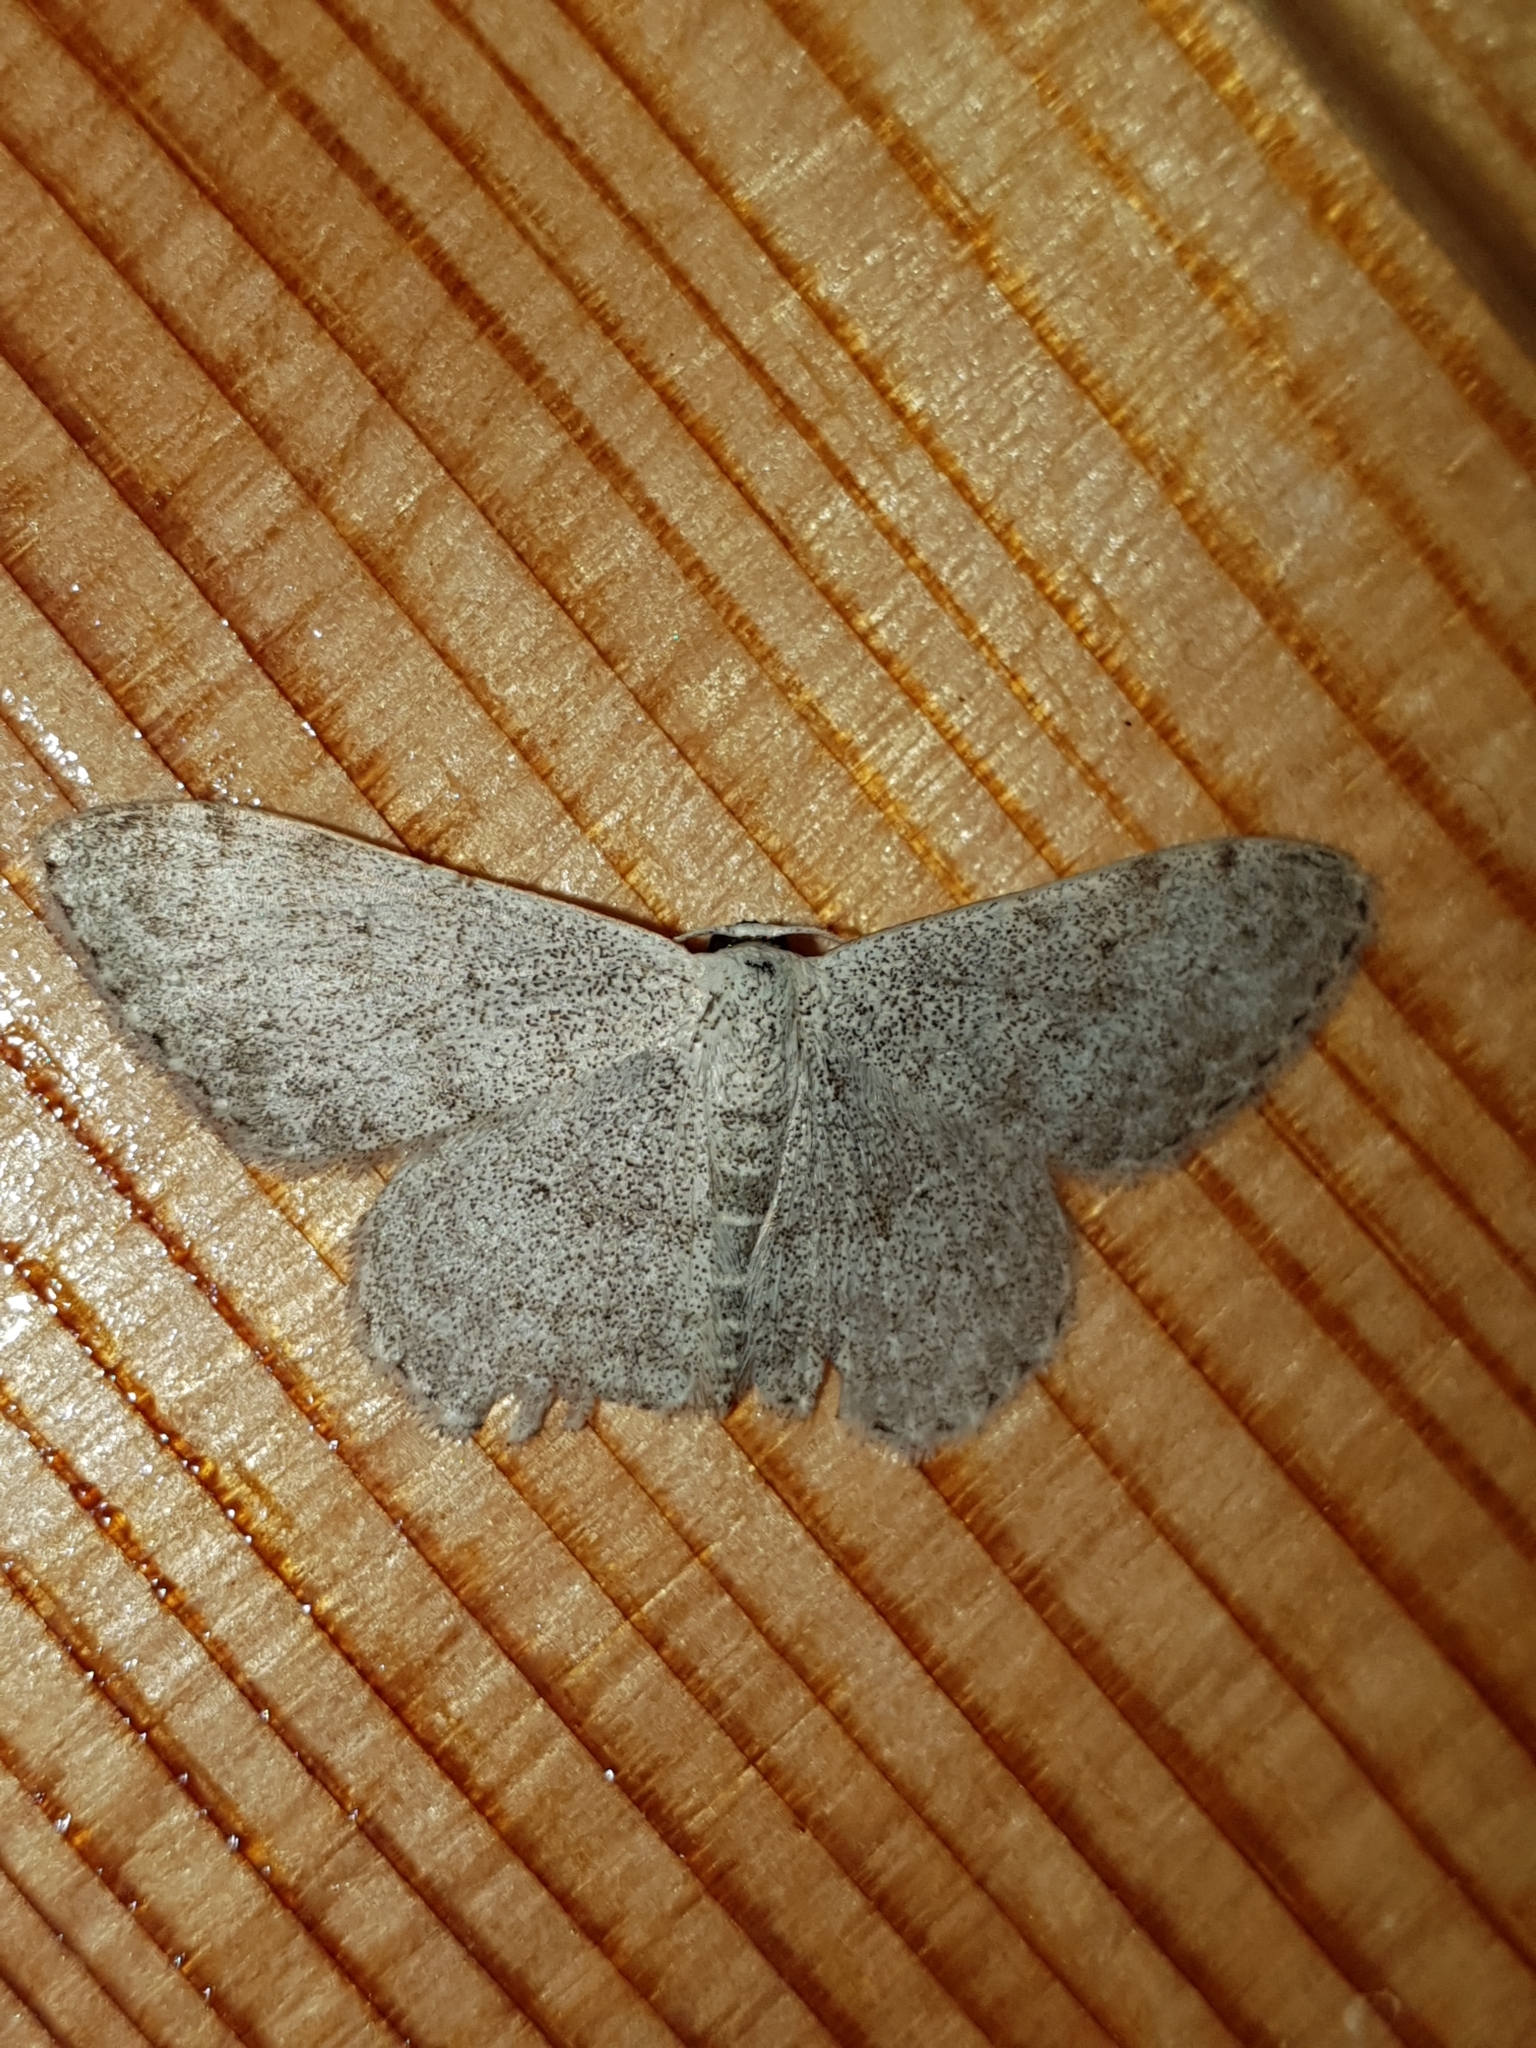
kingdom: Animalia
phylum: Arthropoda
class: Insecta
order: Lepidoptera
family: Geometridae
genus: Scopula
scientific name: Scopula marginepunctata
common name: Mullein wave
